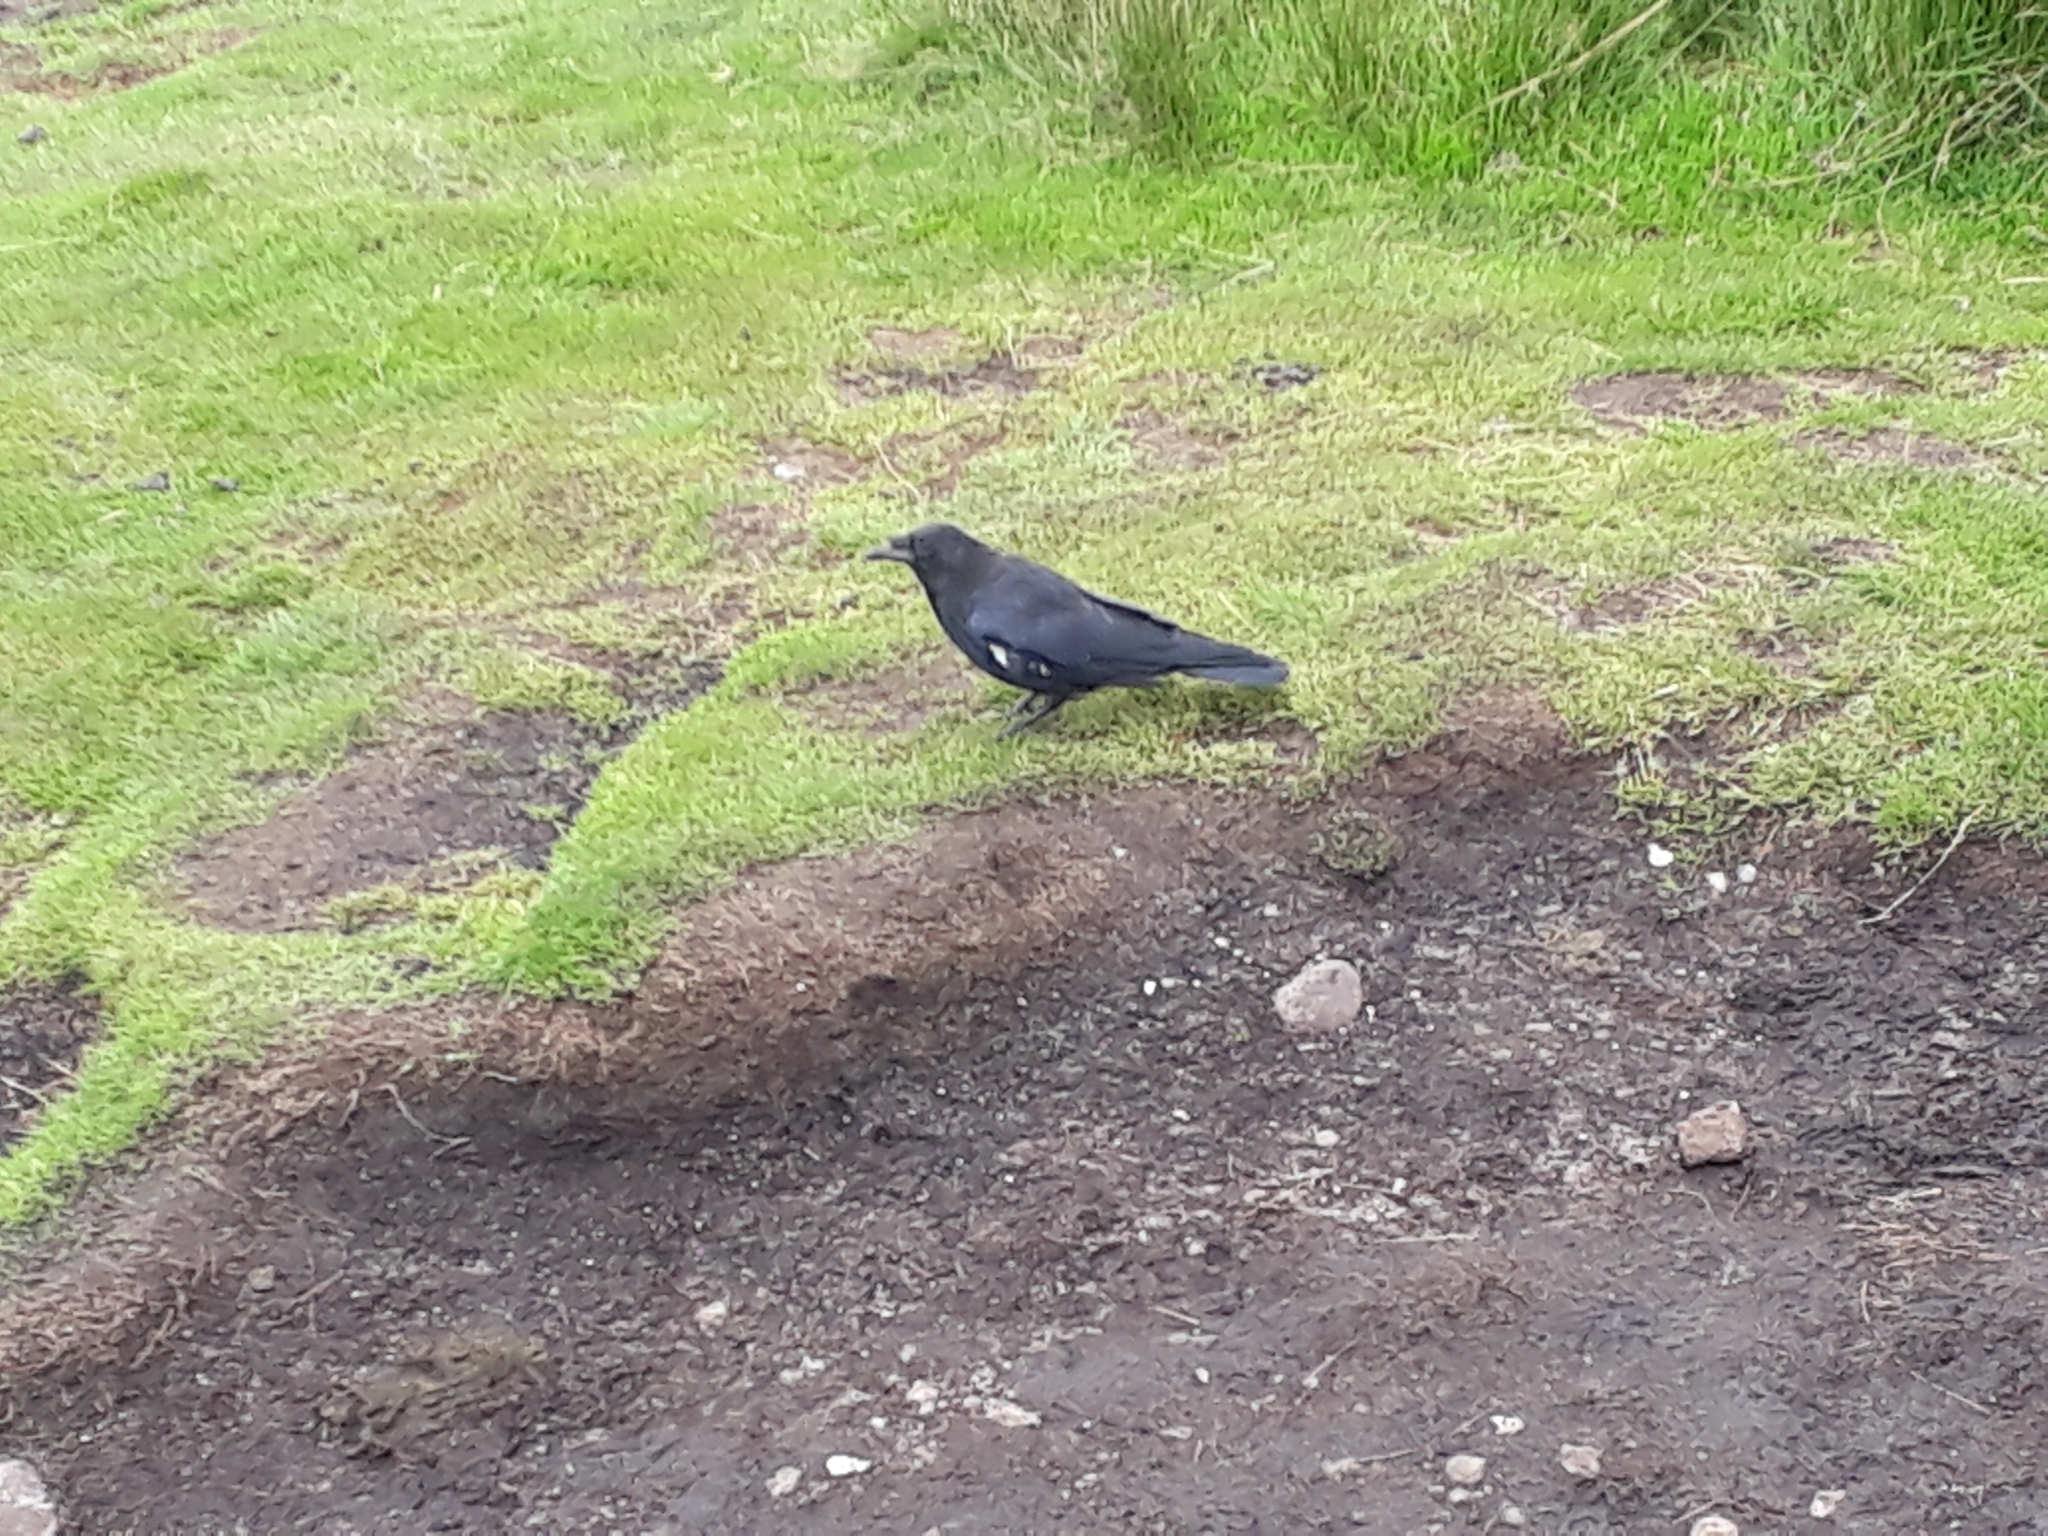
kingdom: Animalia
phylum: Chordata
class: Aves
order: Passeriformes
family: Corvidae
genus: Corvus
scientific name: Corvus corone
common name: Carrion crow
